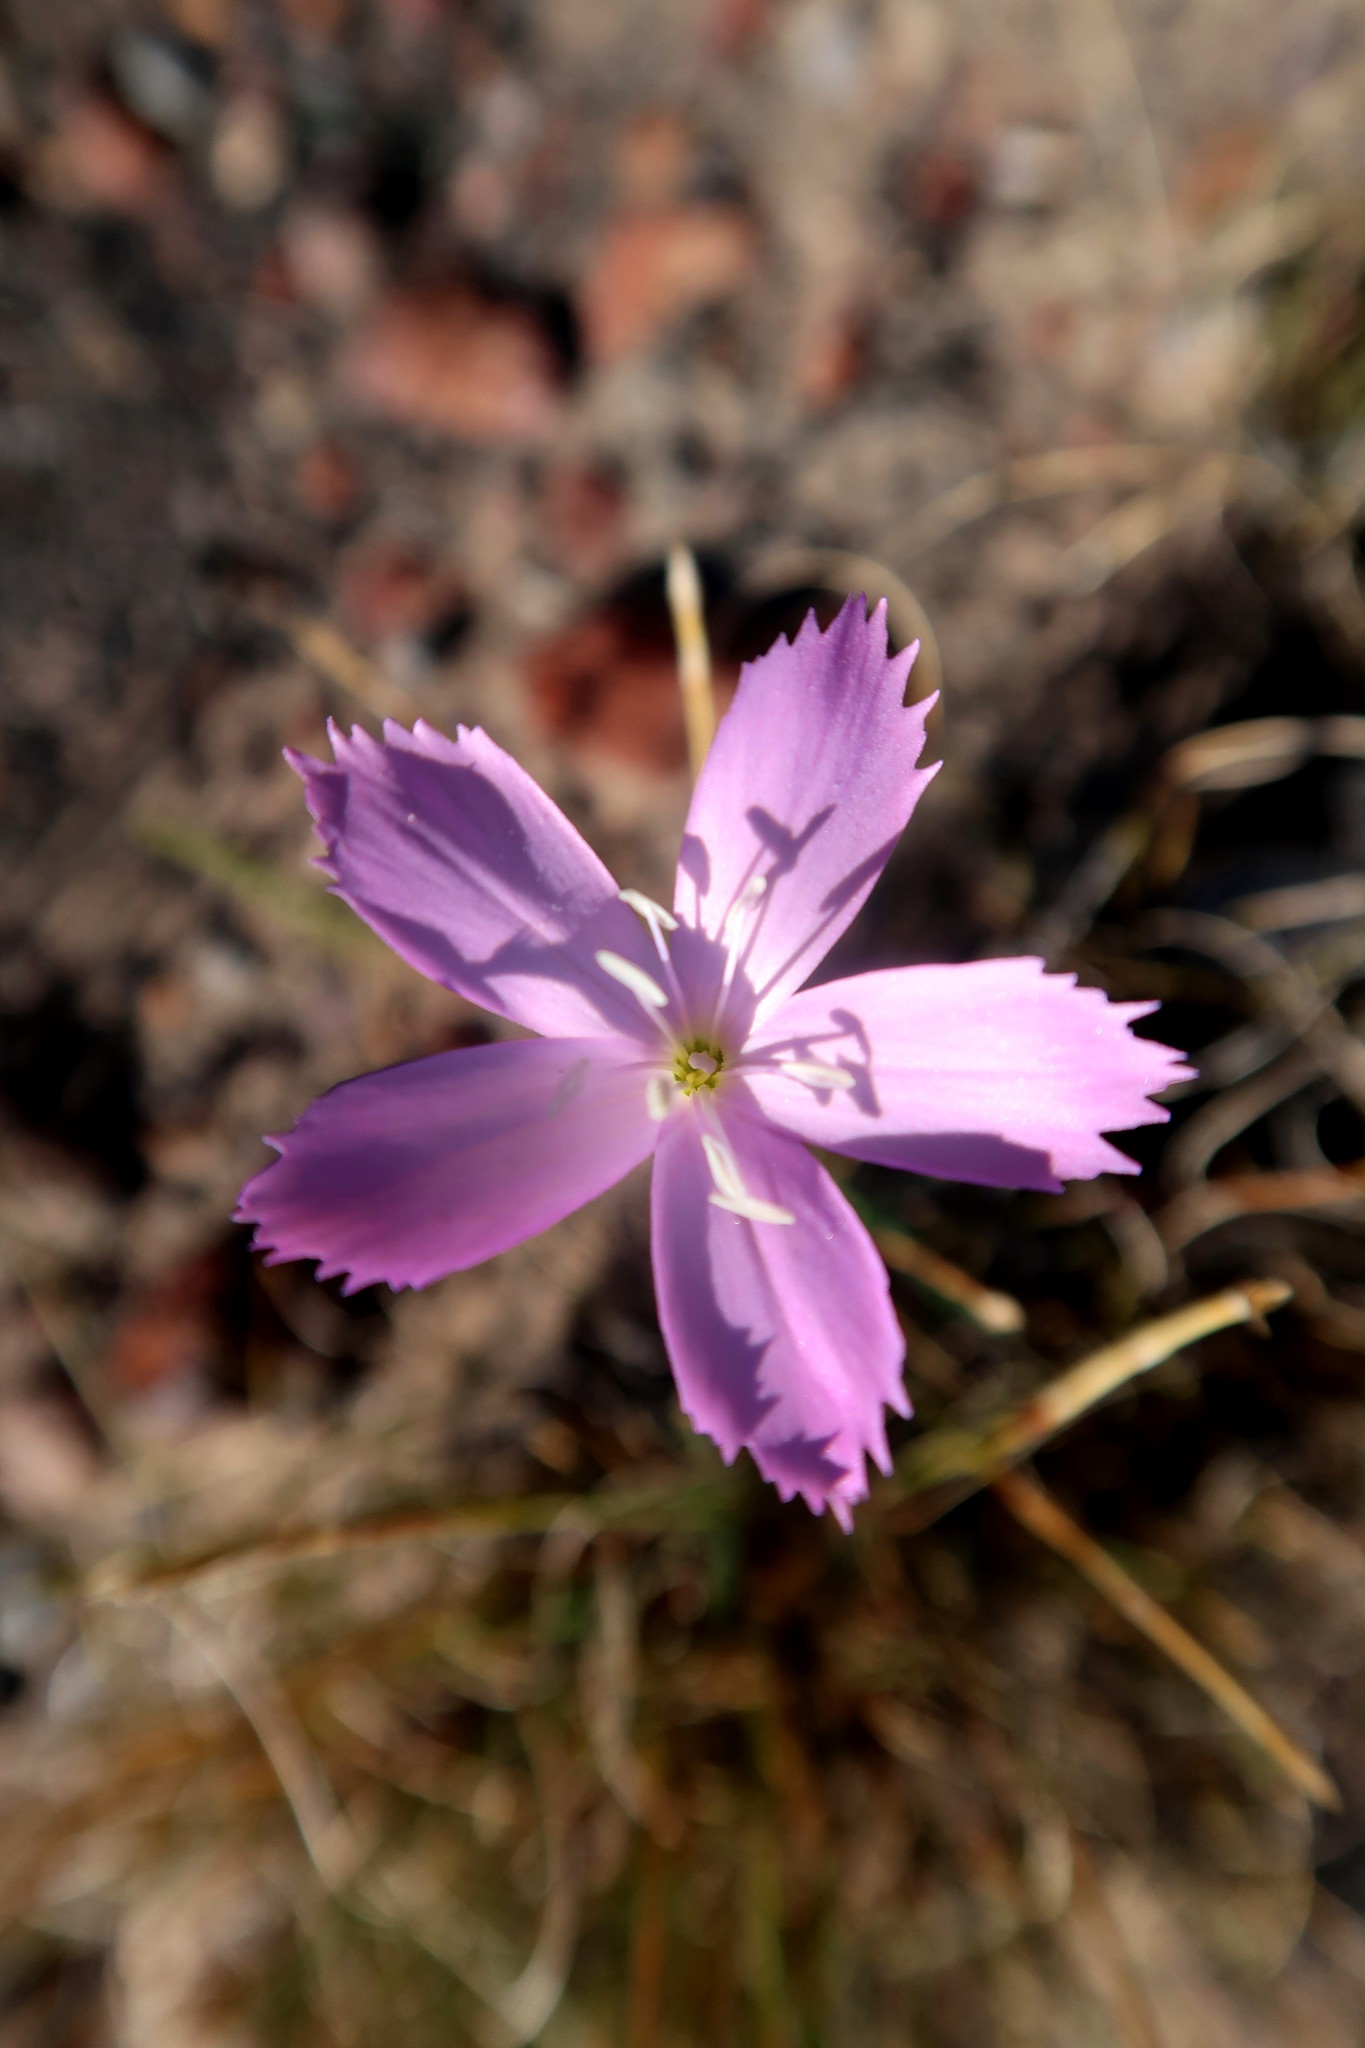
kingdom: Plantae
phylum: Tracheophyta
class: Magnoliopsida
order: Caryophyllales
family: Caryophyllaceae
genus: Dianthus
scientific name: Dianthus thunbergii
